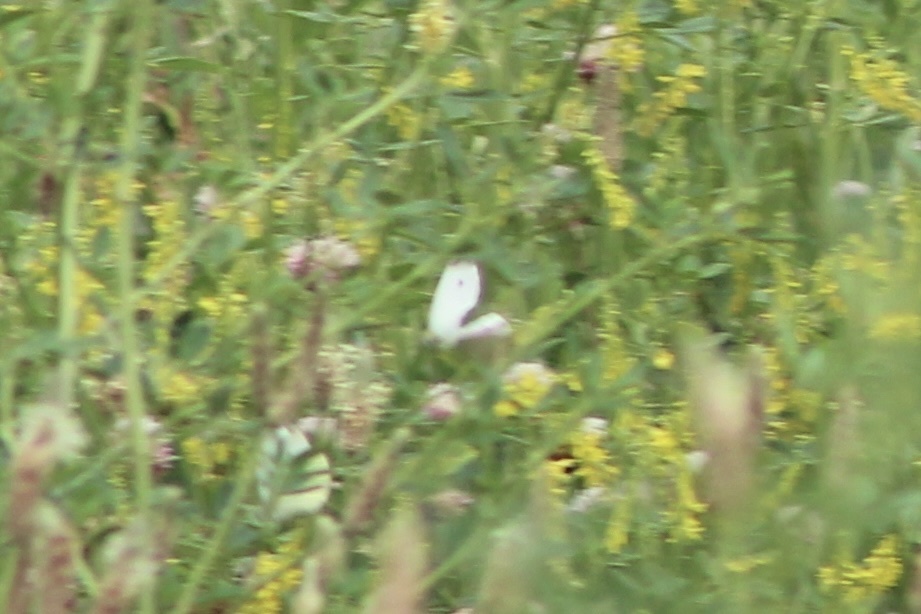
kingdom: Animalia
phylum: Arthropoda
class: Insecta
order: Lepidoptera
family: Pieridae
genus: Pieris
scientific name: Pieris rapae
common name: Small white
